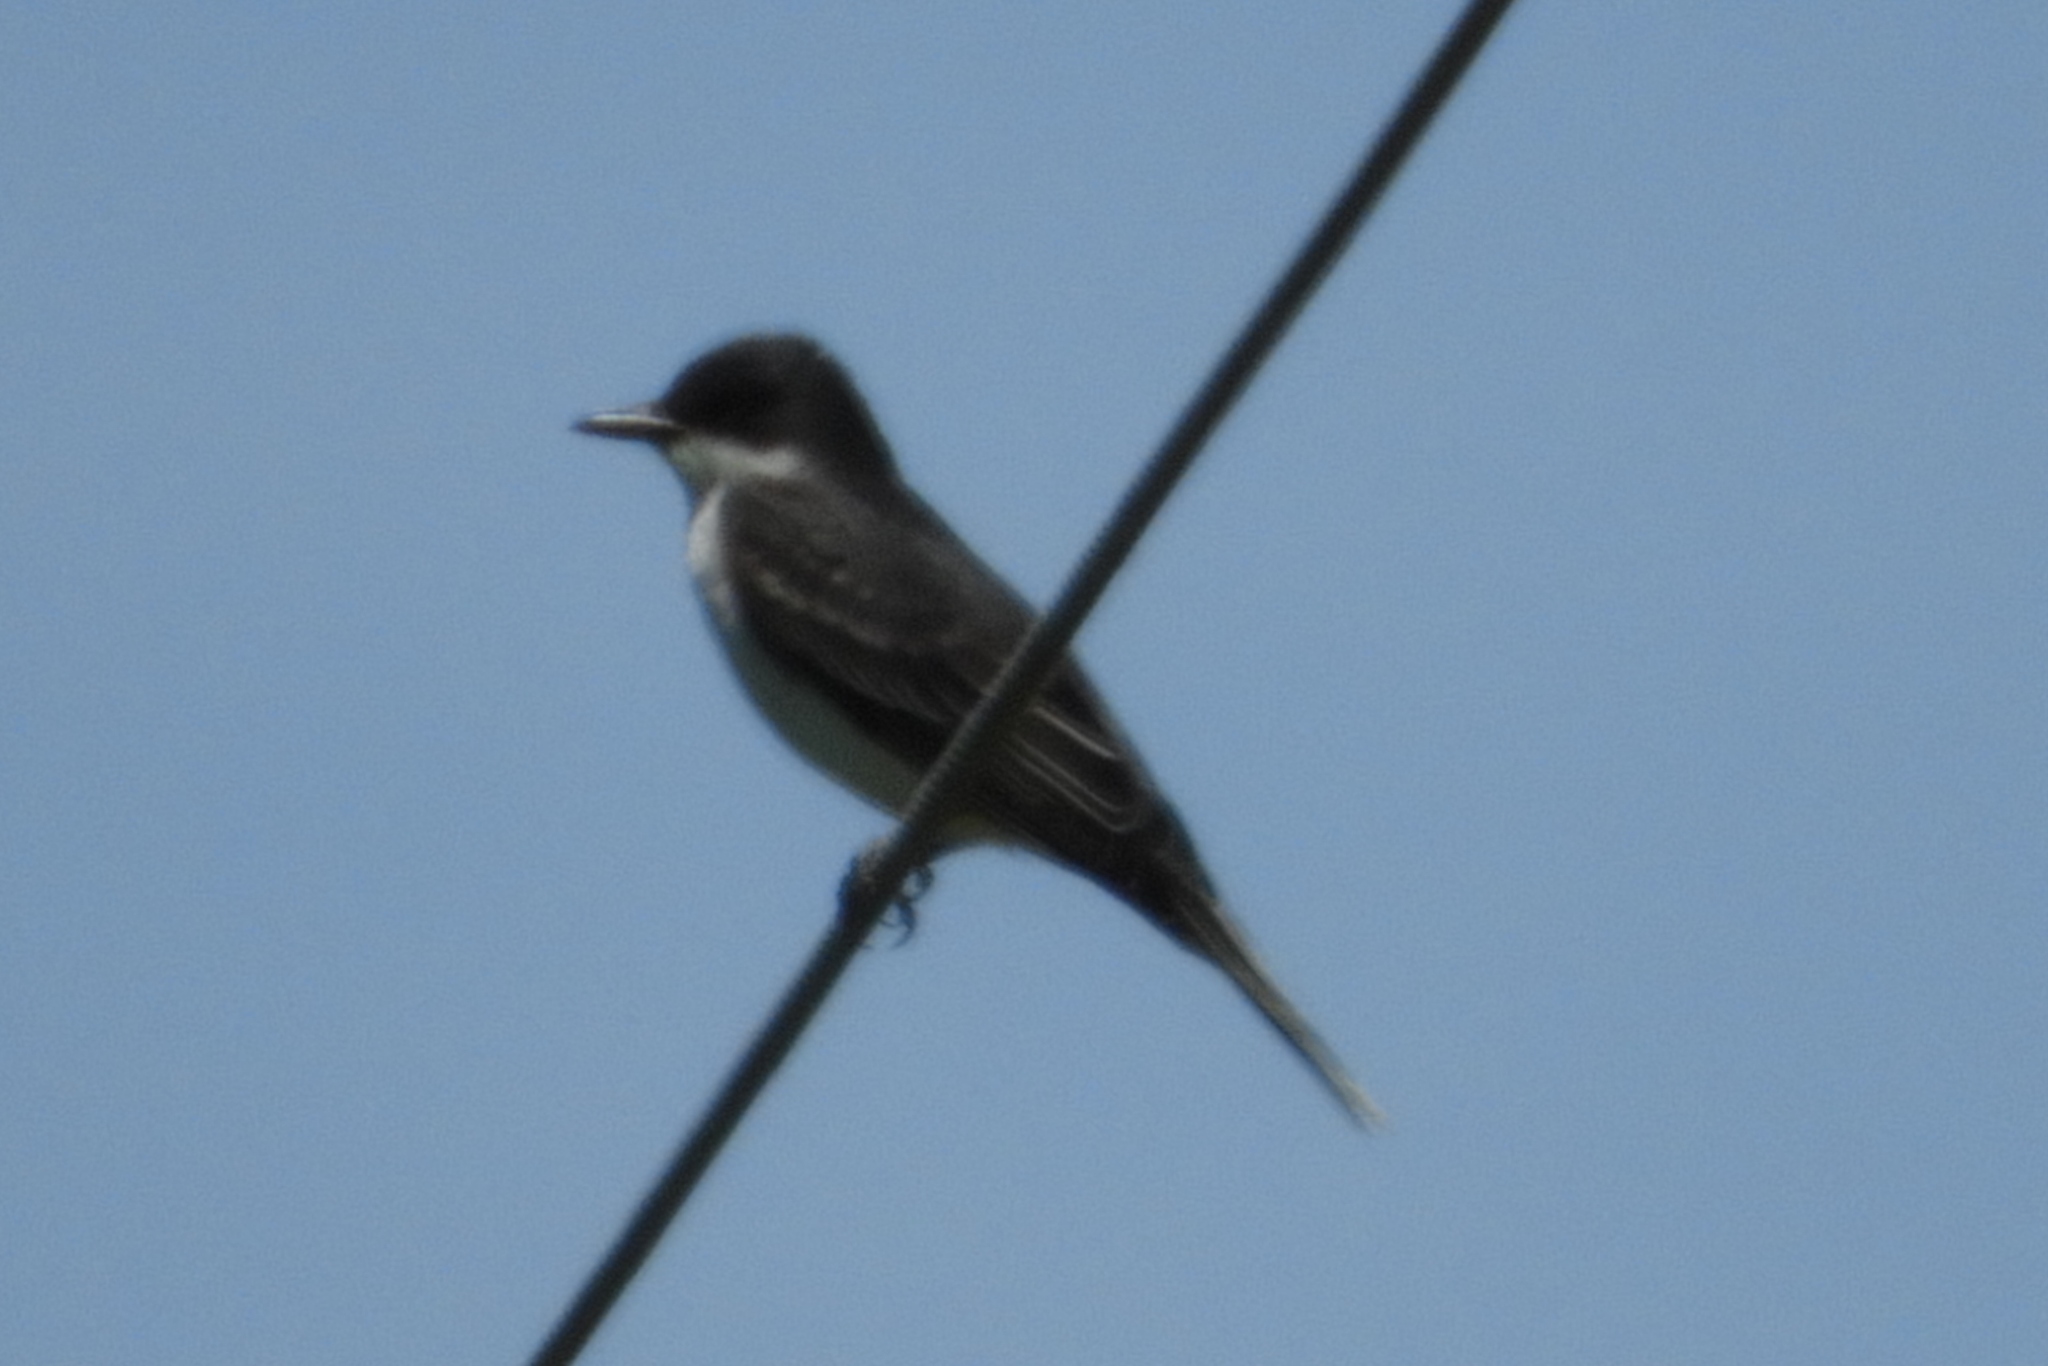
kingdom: Animalia
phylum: Chordata
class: Aves
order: Passeriformes
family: Tyrannidae
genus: Tyrannus
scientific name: Tyrannus tyrannus
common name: Eastern kingbird
